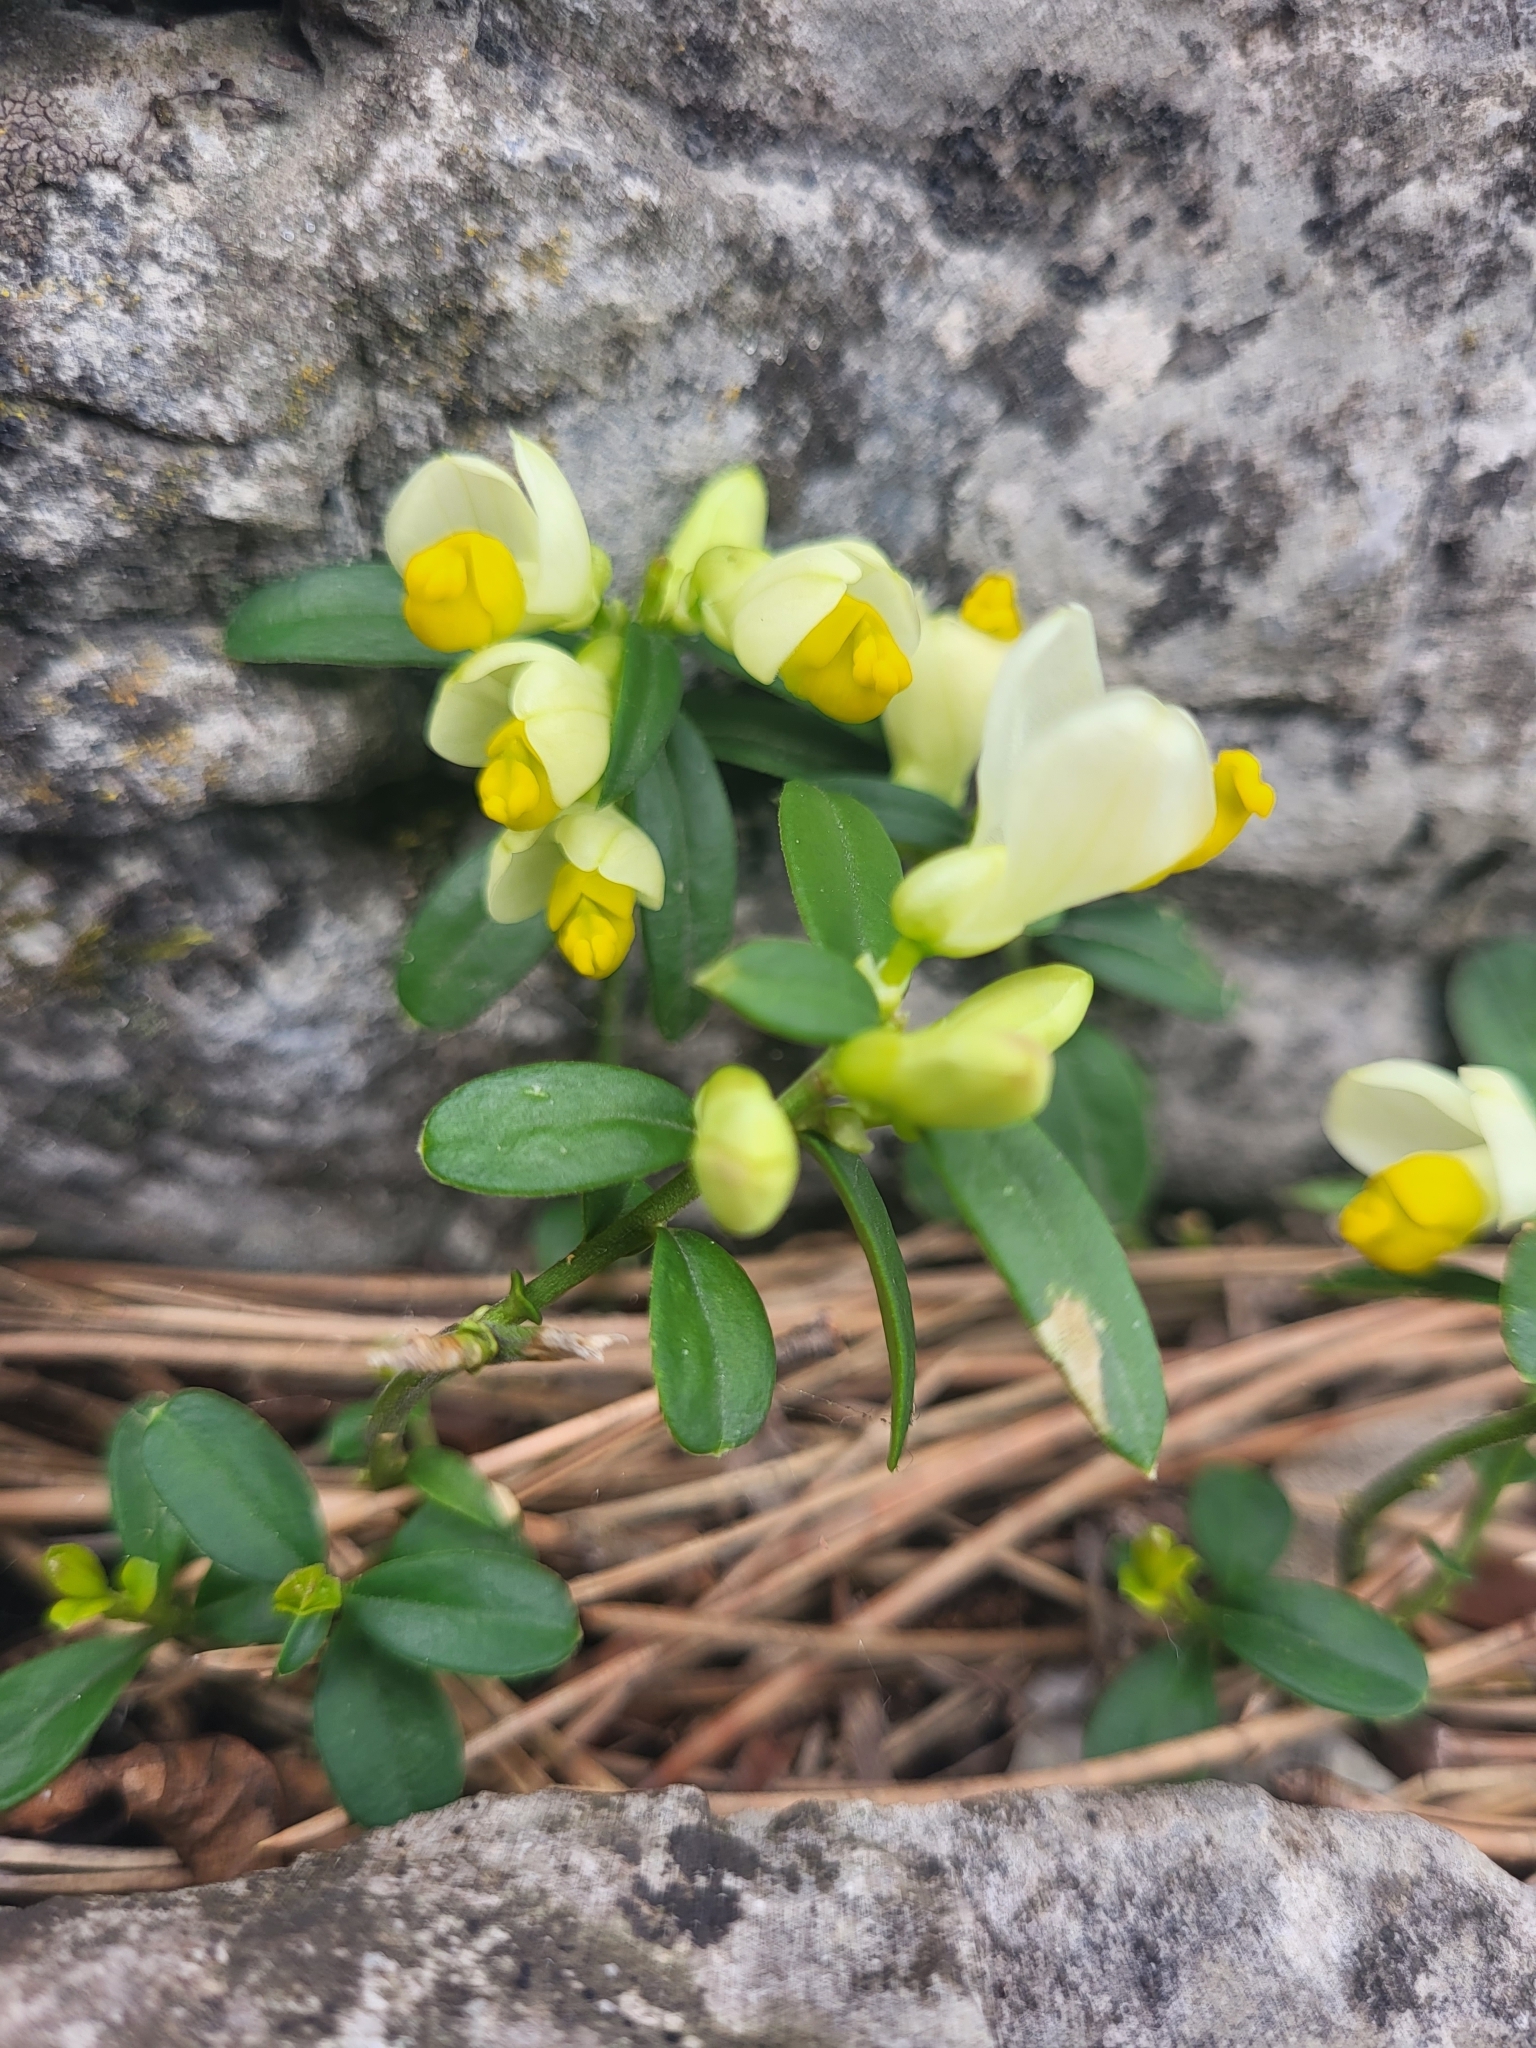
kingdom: Plantae
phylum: Tracheophyta
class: Magnoliopsida
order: Fabales
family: Polygalaceae
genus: Polygaloides
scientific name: Polygaloides chamaebuxus
